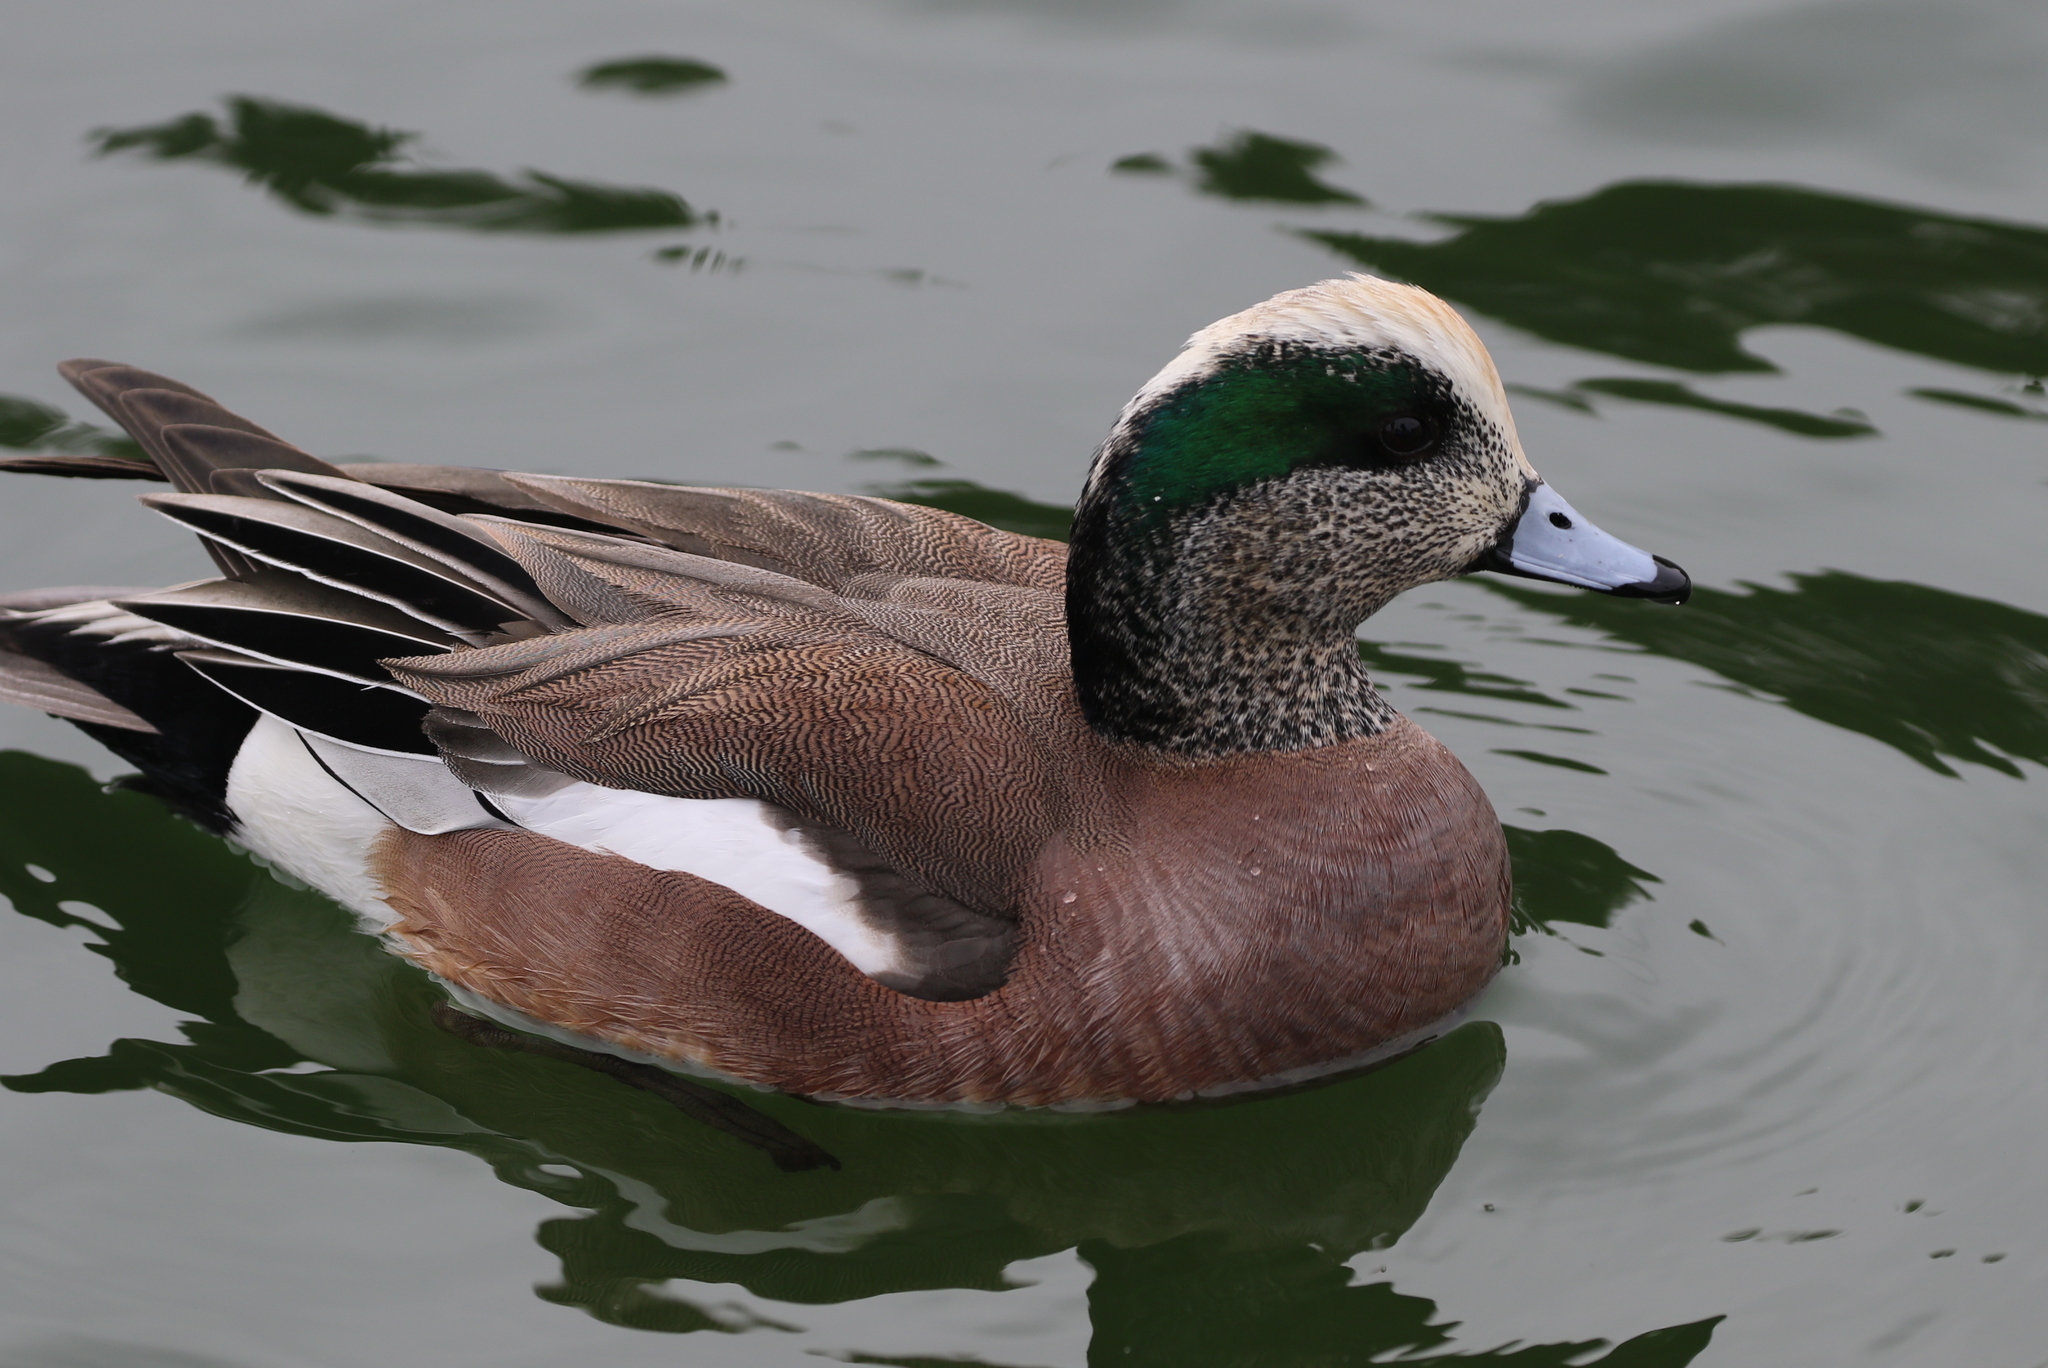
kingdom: Animalia
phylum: Chordata
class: Aves
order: Anseriformes
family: Anatidae
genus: Mareca
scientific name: Mareca americana
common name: American wigeon
